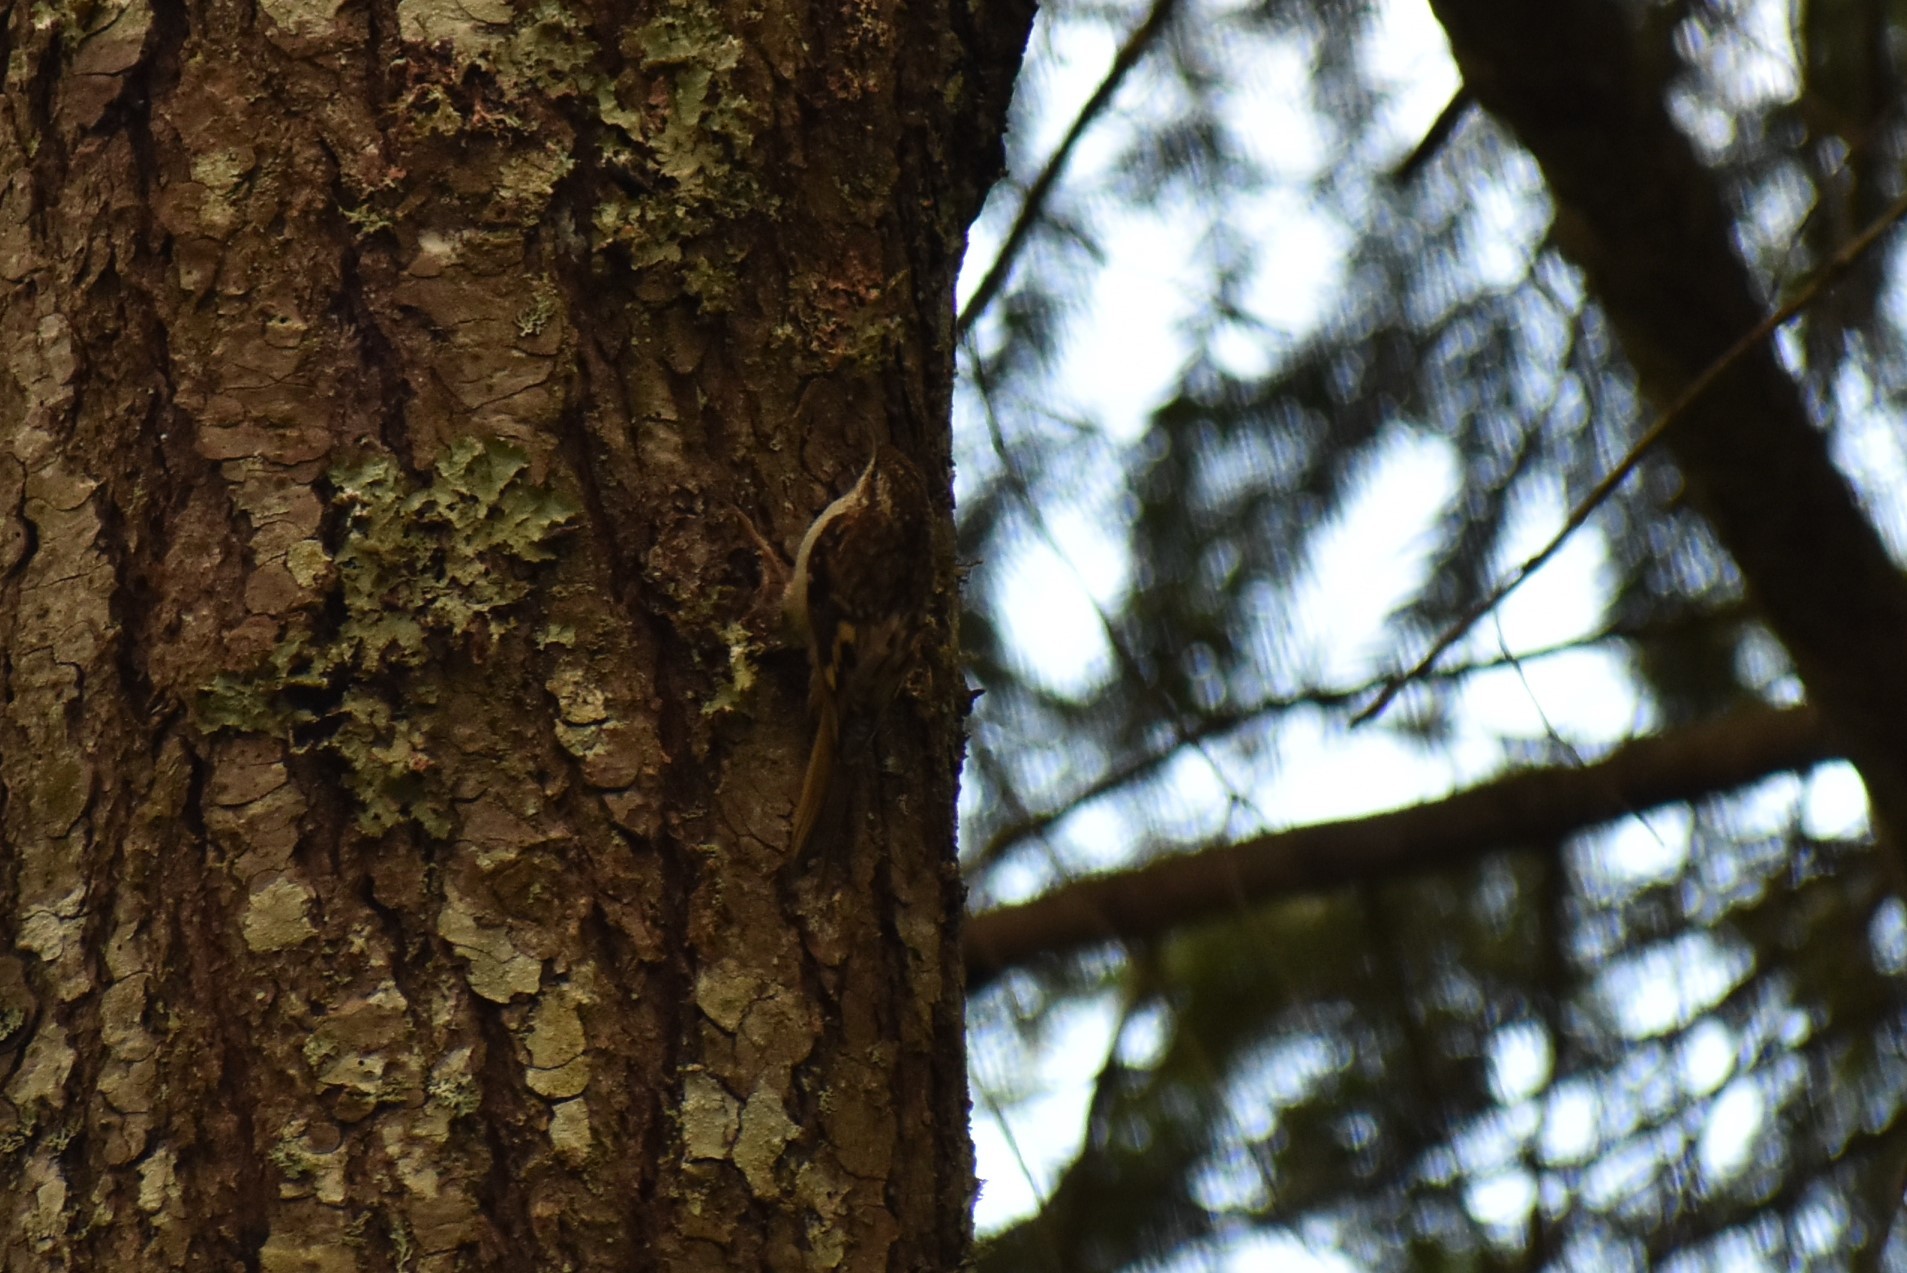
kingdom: Animalia
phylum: Chordata
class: Aves
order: Passeriformes
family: Certhiidae
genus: Certhia
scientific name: Certhia americana
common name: Brown creeper
